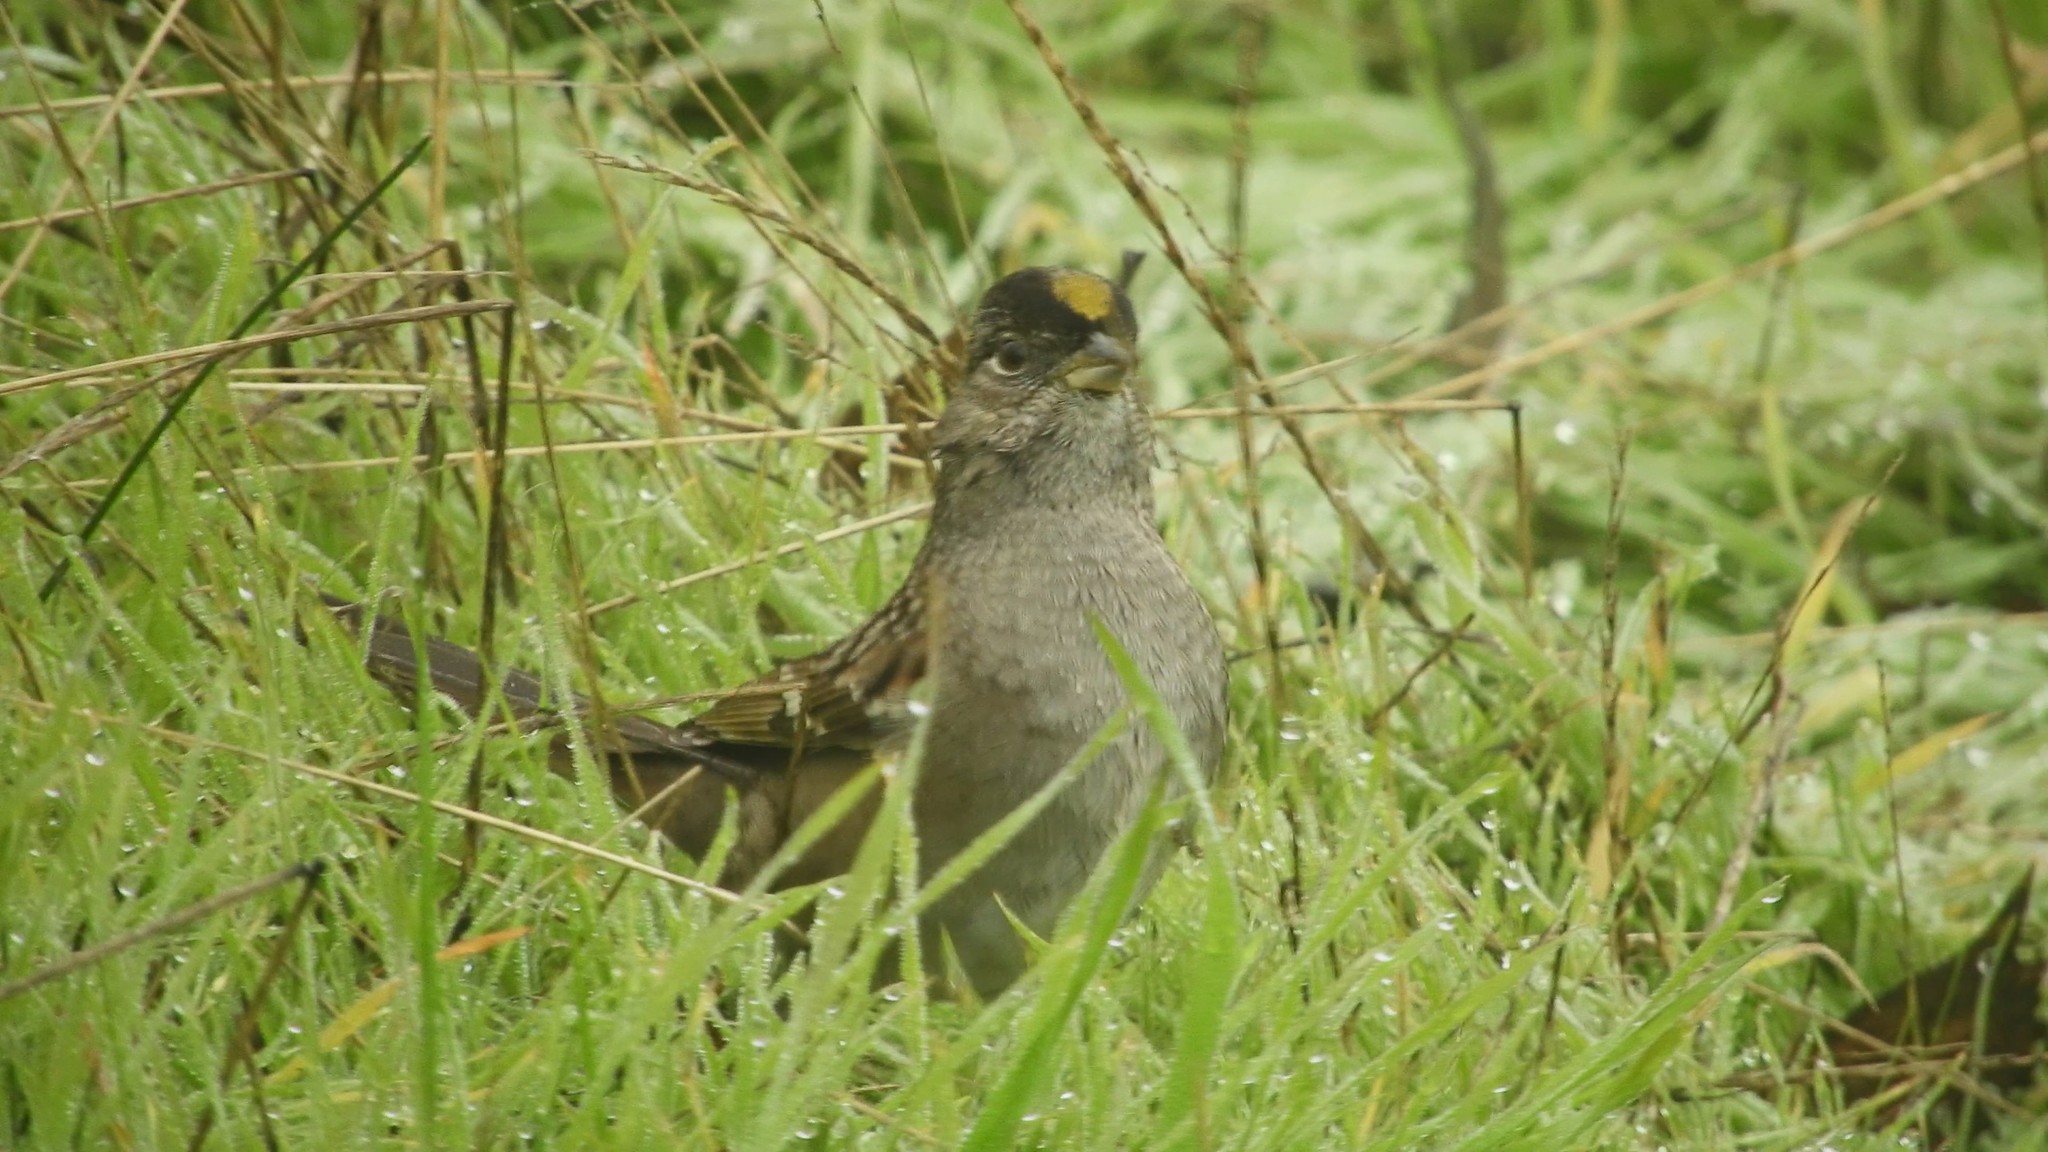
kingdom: Animalia
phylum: Chordata
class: Aves
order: Passeriformes
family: Passerellidae
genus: Zonotrichia
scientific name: Zonotrichia atricapilla
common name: Golden-crowned sparrow
